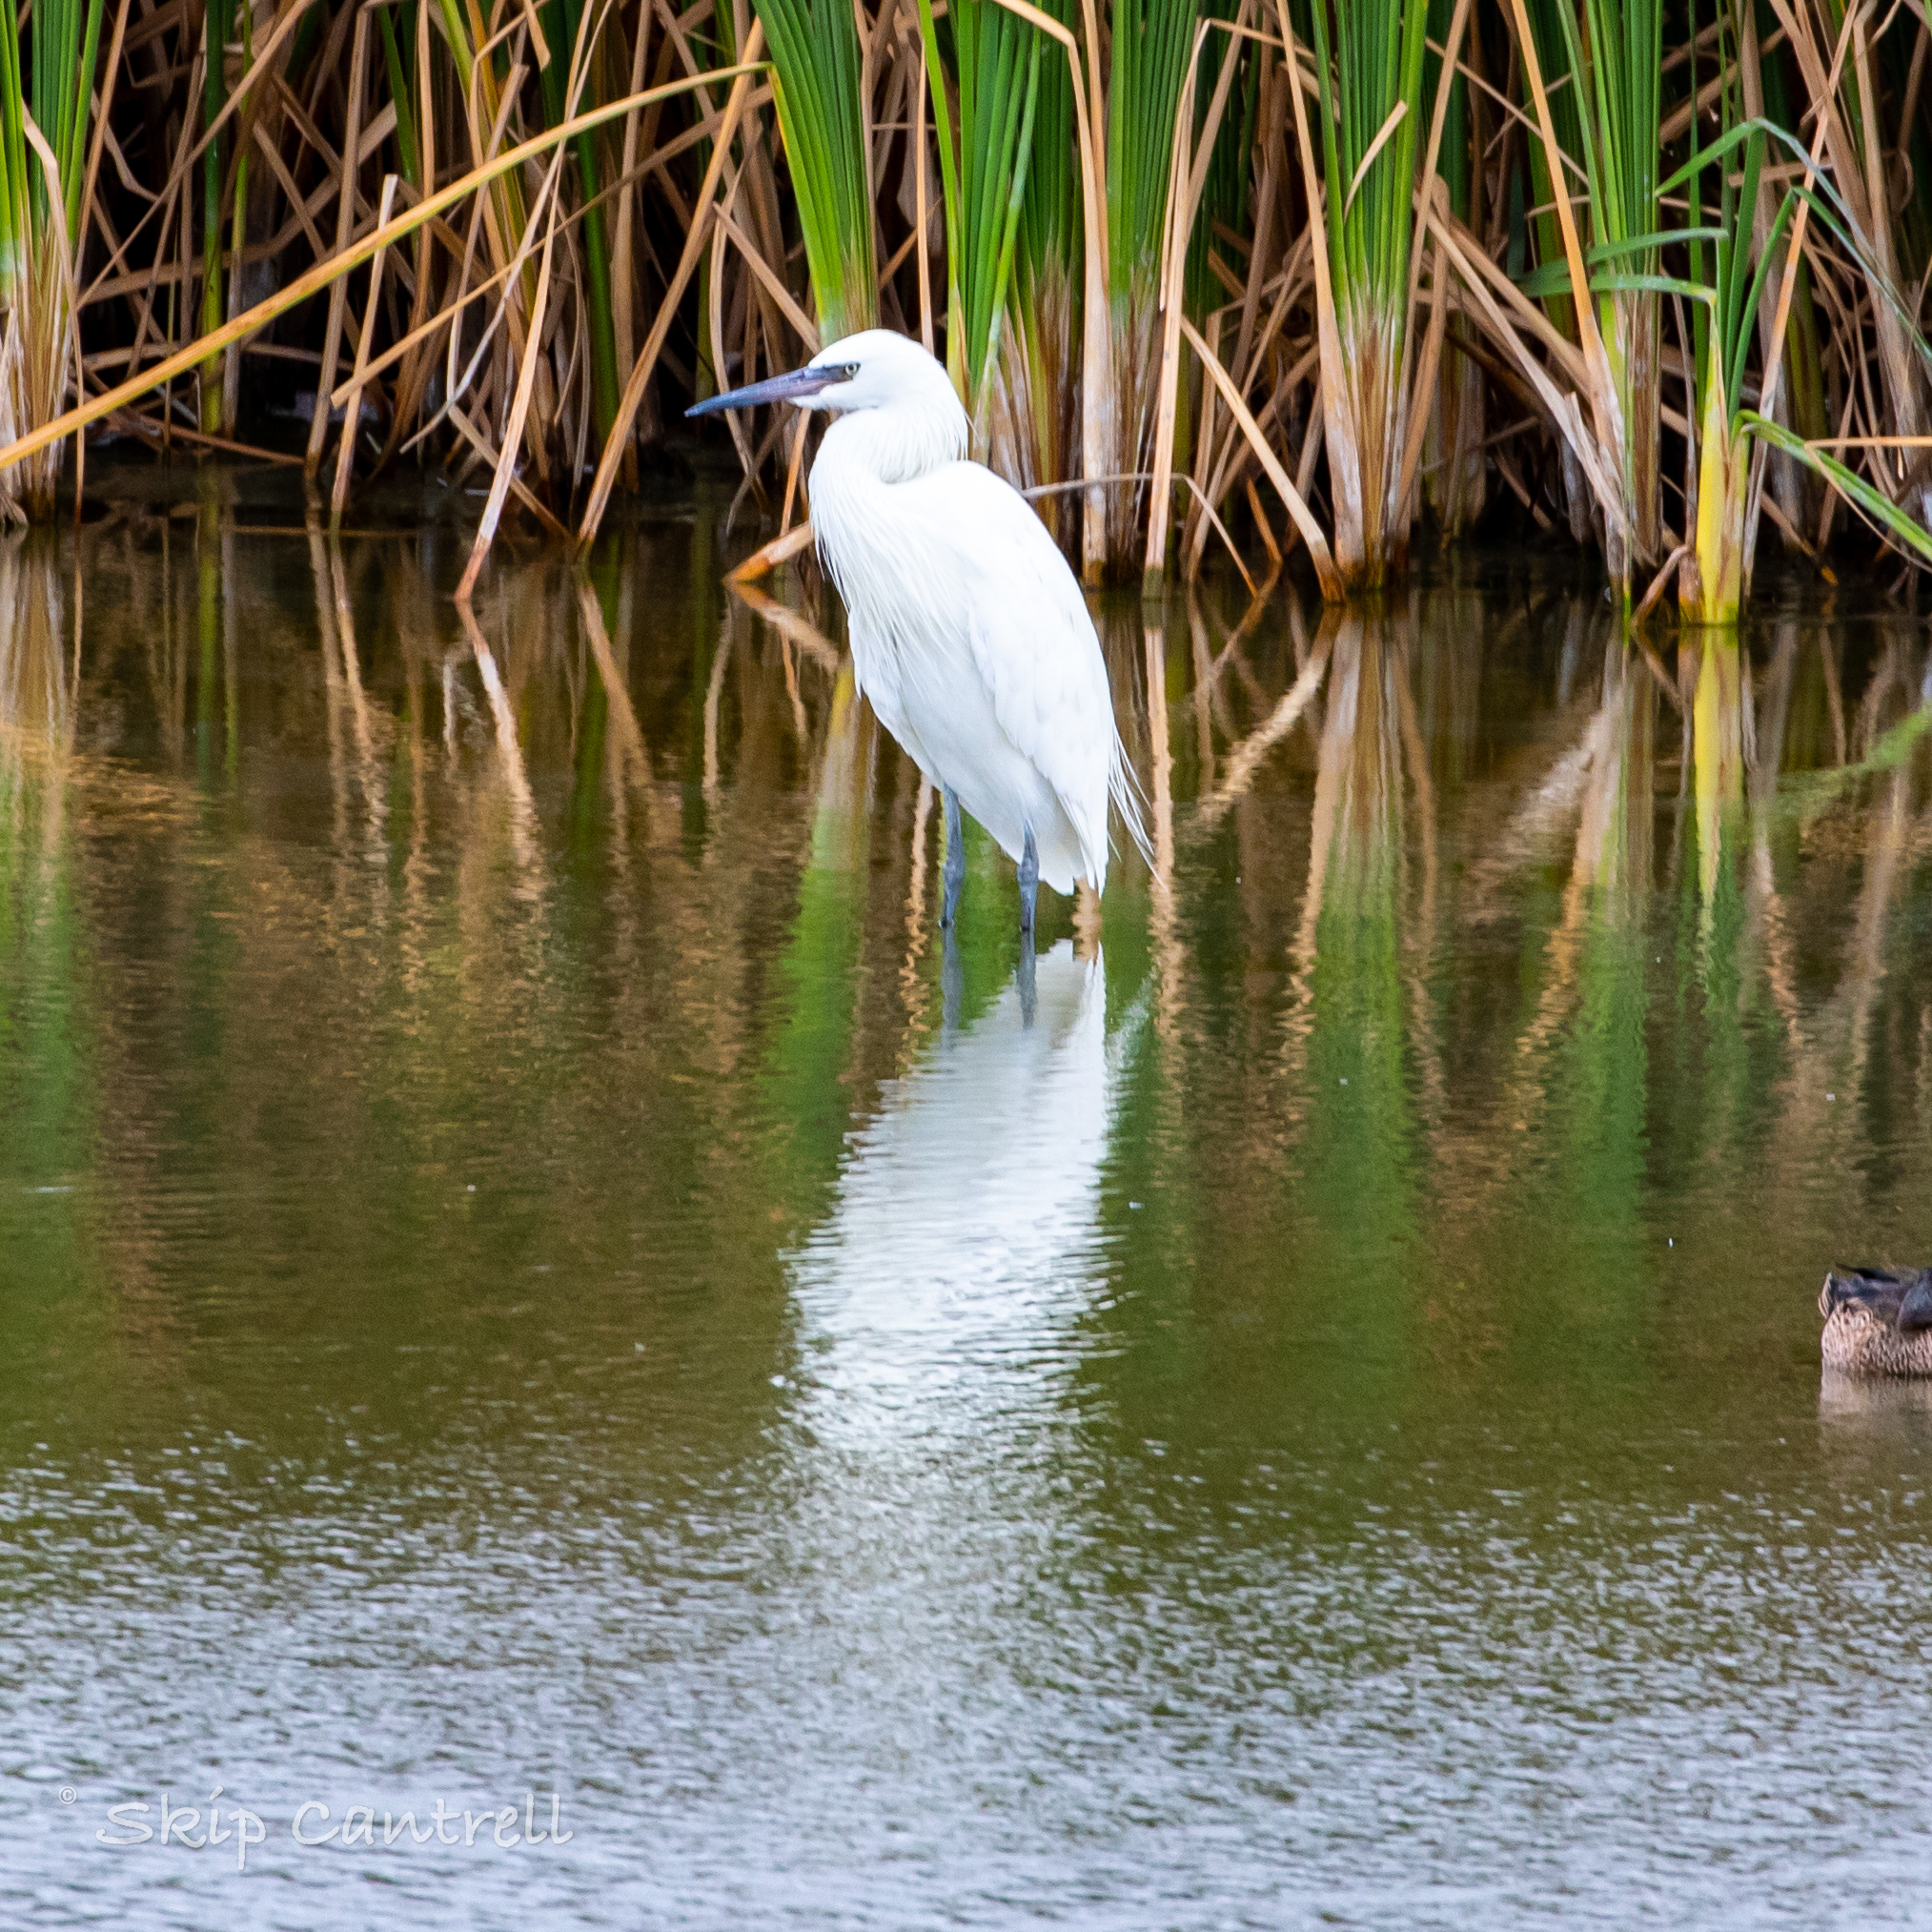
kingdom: Animalia
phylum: Chordata
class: Aves
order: Pelecaniformes
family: Ardeidae
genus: Egretta
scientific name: Egretta rufescens
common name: Reddish egret
